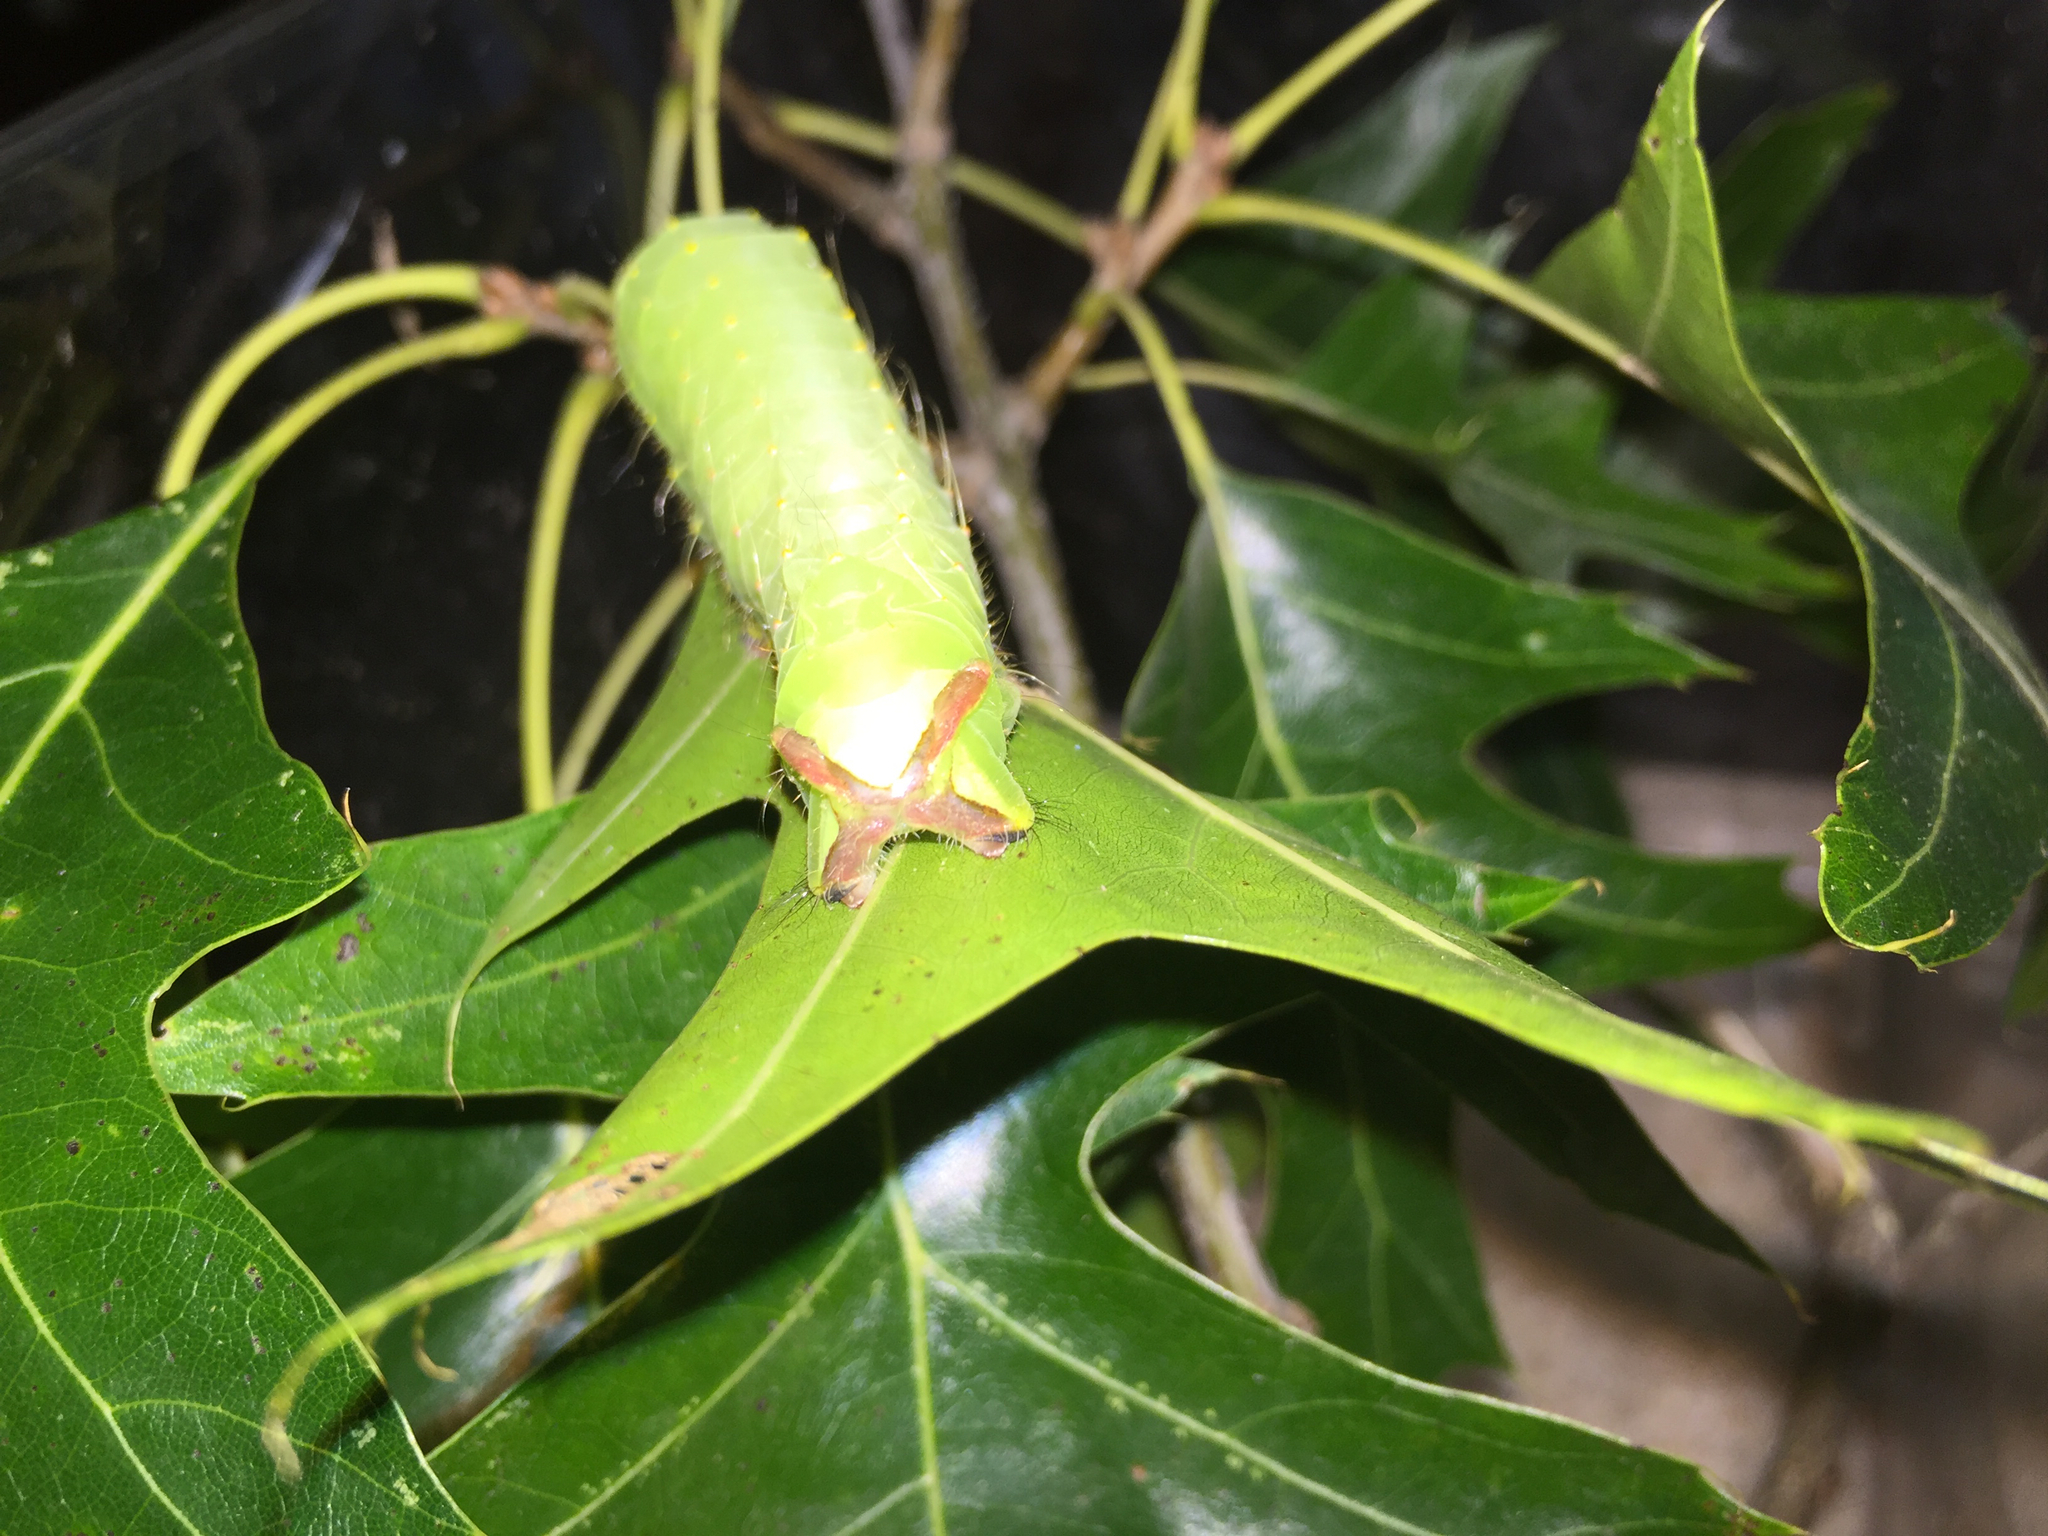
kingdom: Animalia
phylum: Arthropoda
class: Insecta
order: Lepidoptera
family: Saturniidae
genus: Antheraea
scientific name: Antheraea polyphemus
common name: Polyphemus moth
